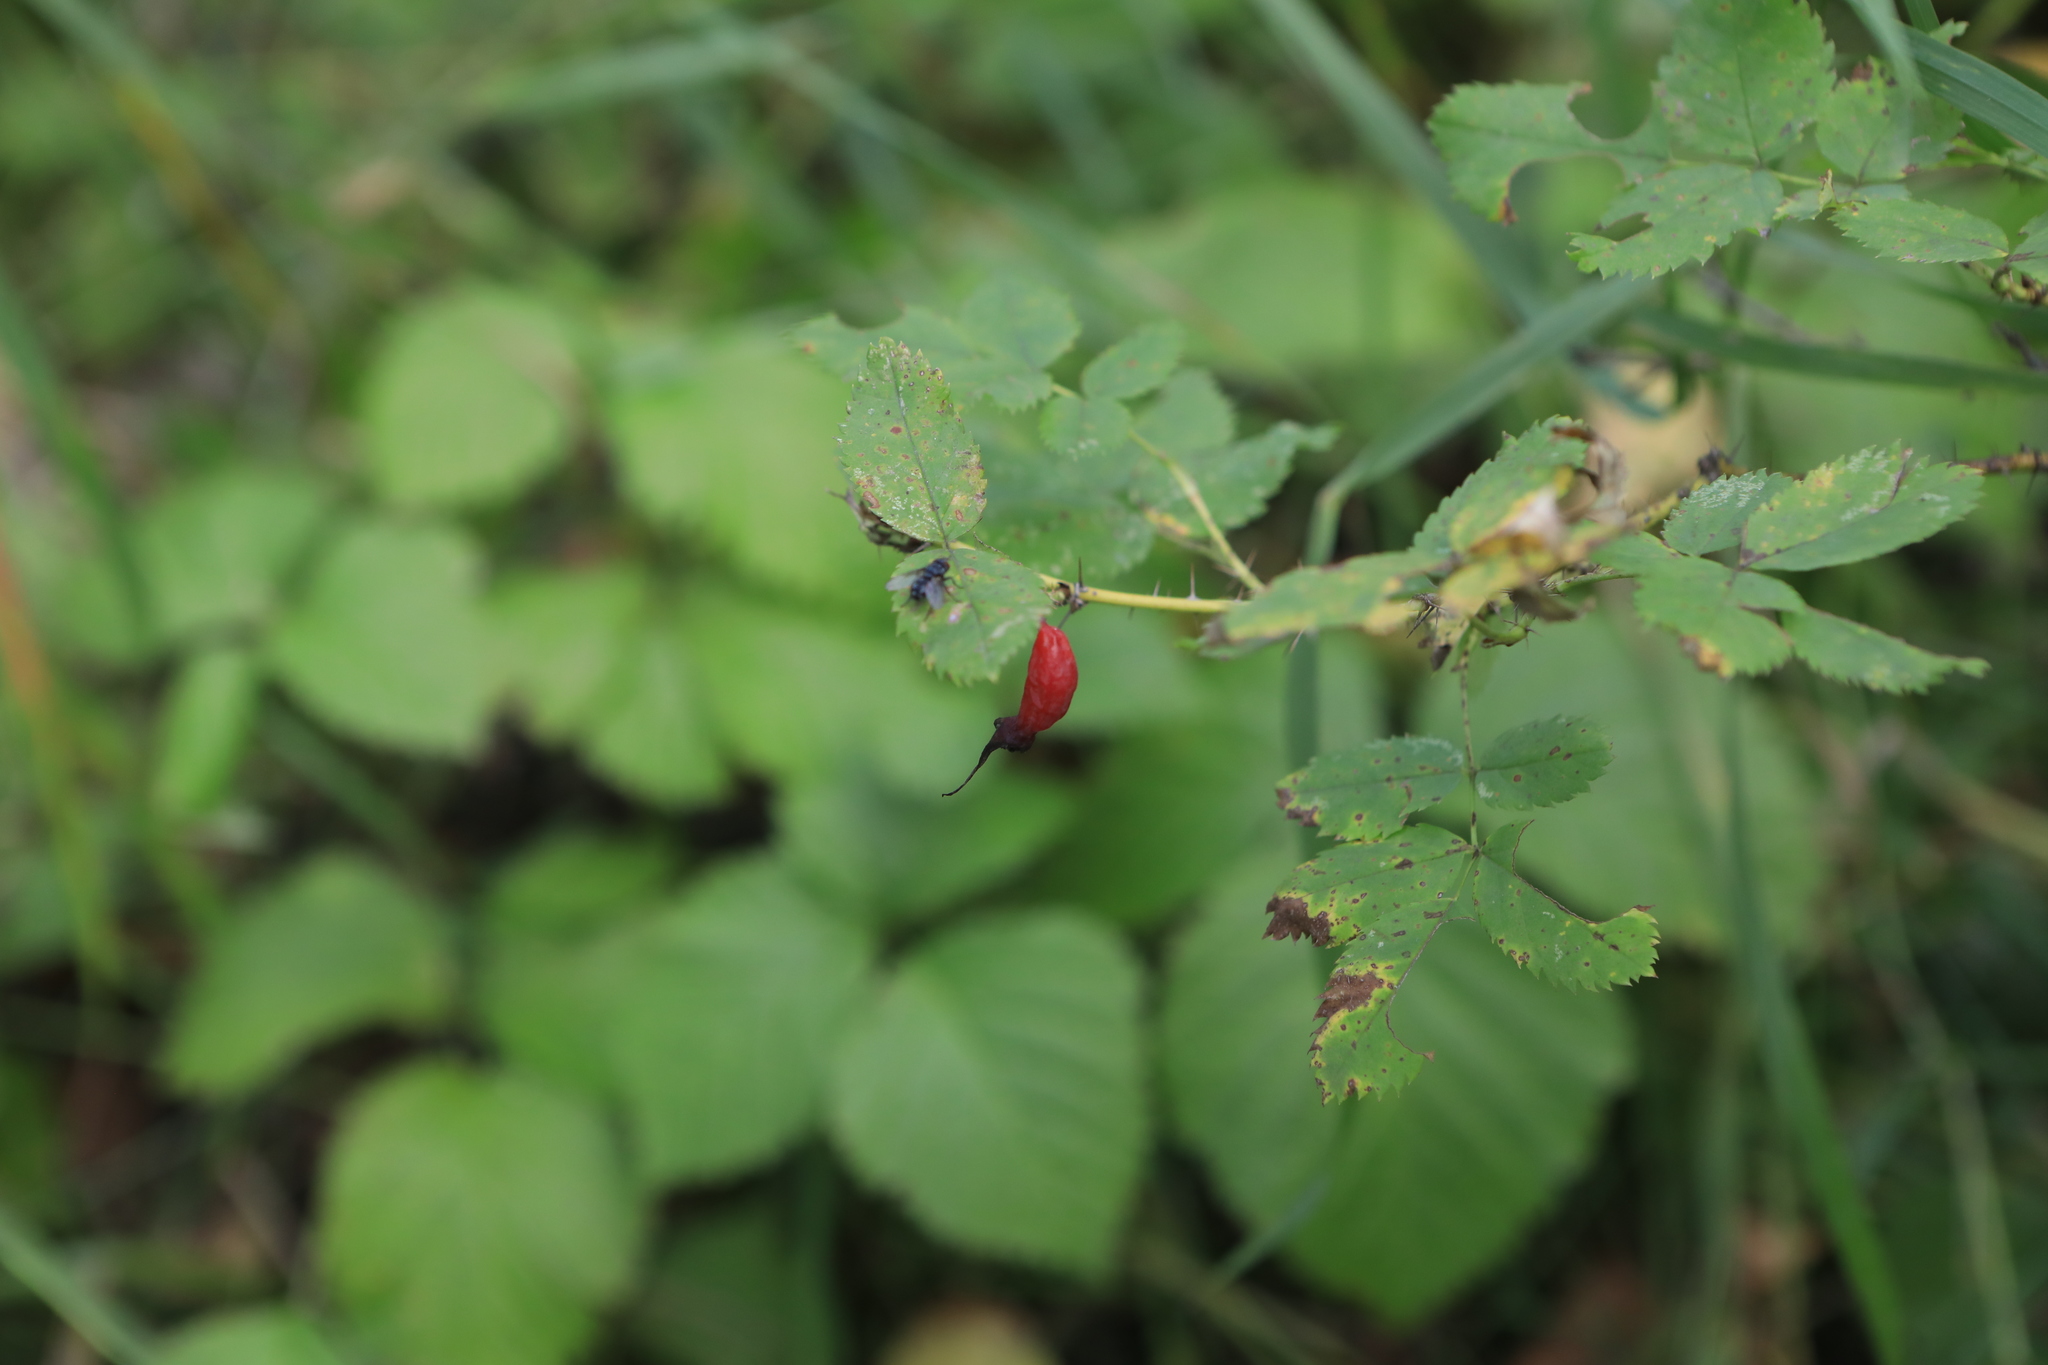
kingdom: Plantae
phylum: Tracheophyta
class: Magnoliopsida
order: Rosales
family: Rosaceae
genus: Rosa
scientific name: Rosa acicularis
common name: Prickly rose
